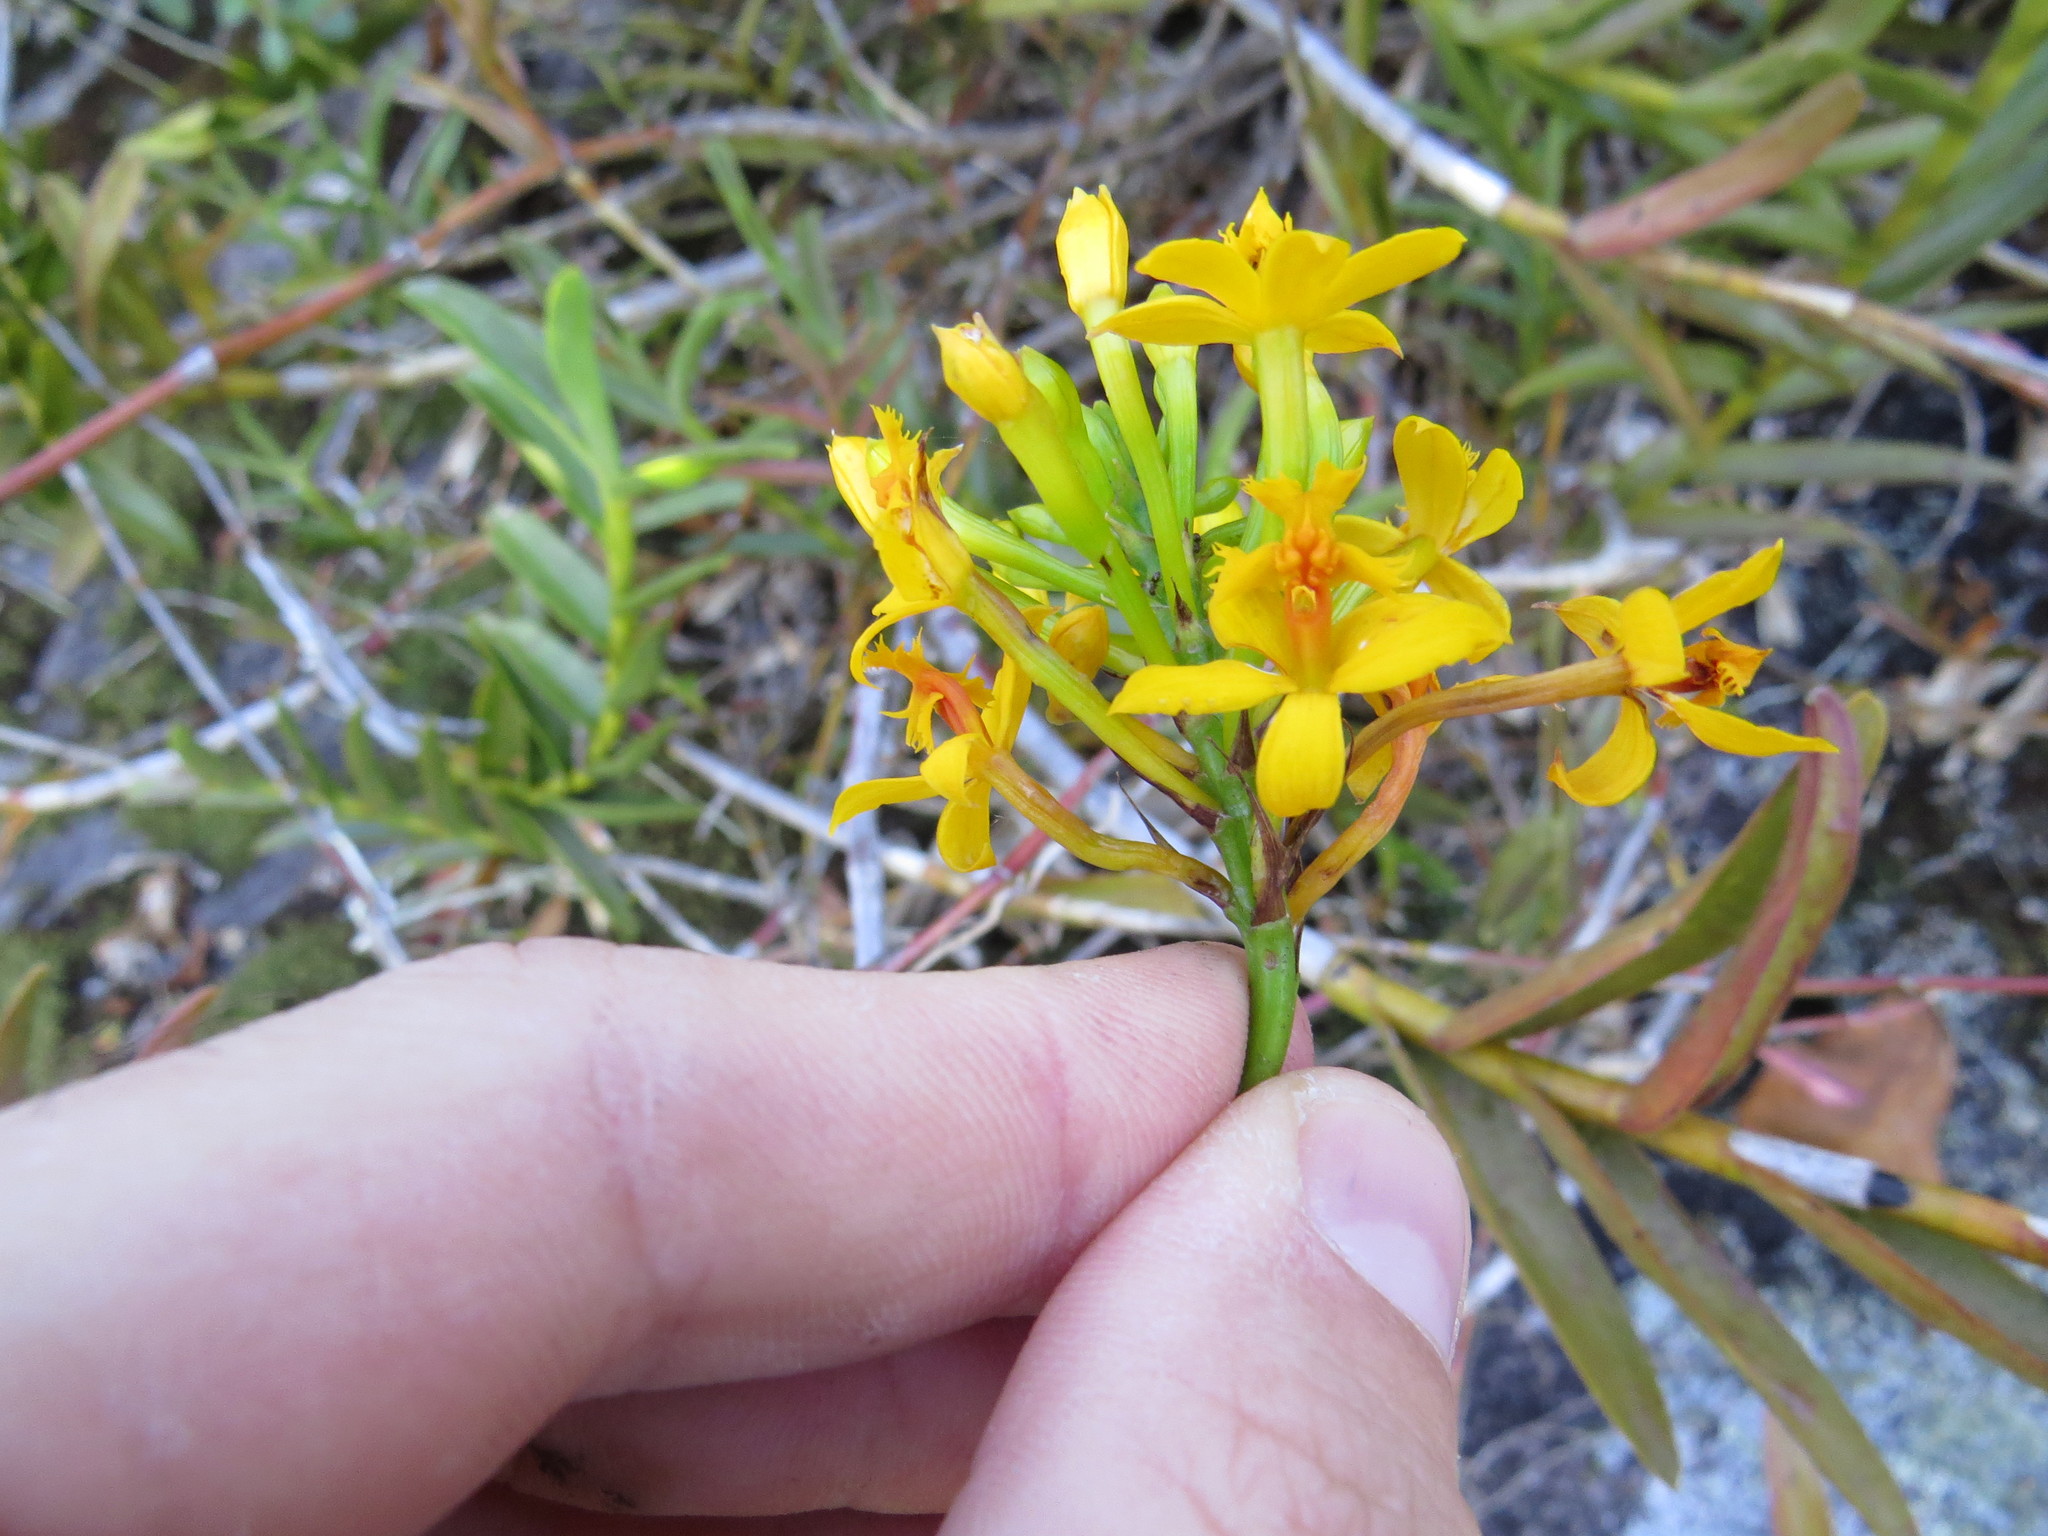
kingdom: Plantae
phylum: Tracheophyta
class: Liliopsida
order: Asparagales
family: Orchidaceae
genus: Epidendrum
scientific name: Epidendrum xanthinum
